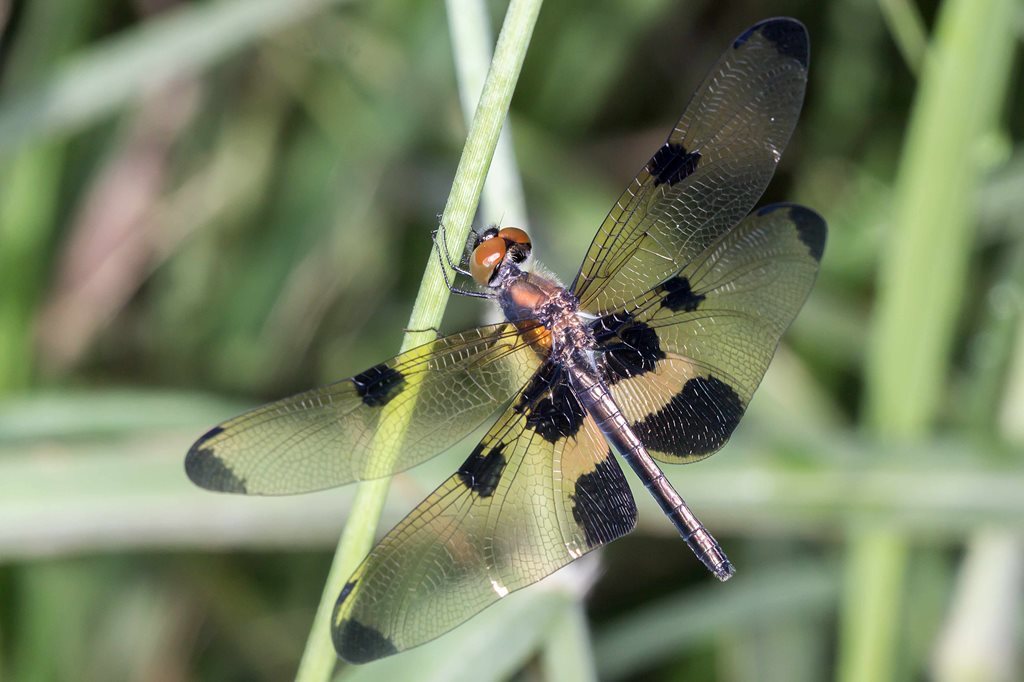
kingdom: Animalia
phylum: Arthropoda
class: Insecta
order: Odonata
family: Libellulidae
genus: Rhyothemis
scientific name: Rhyothemis phyllis
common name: Yellow-barred flutterer
